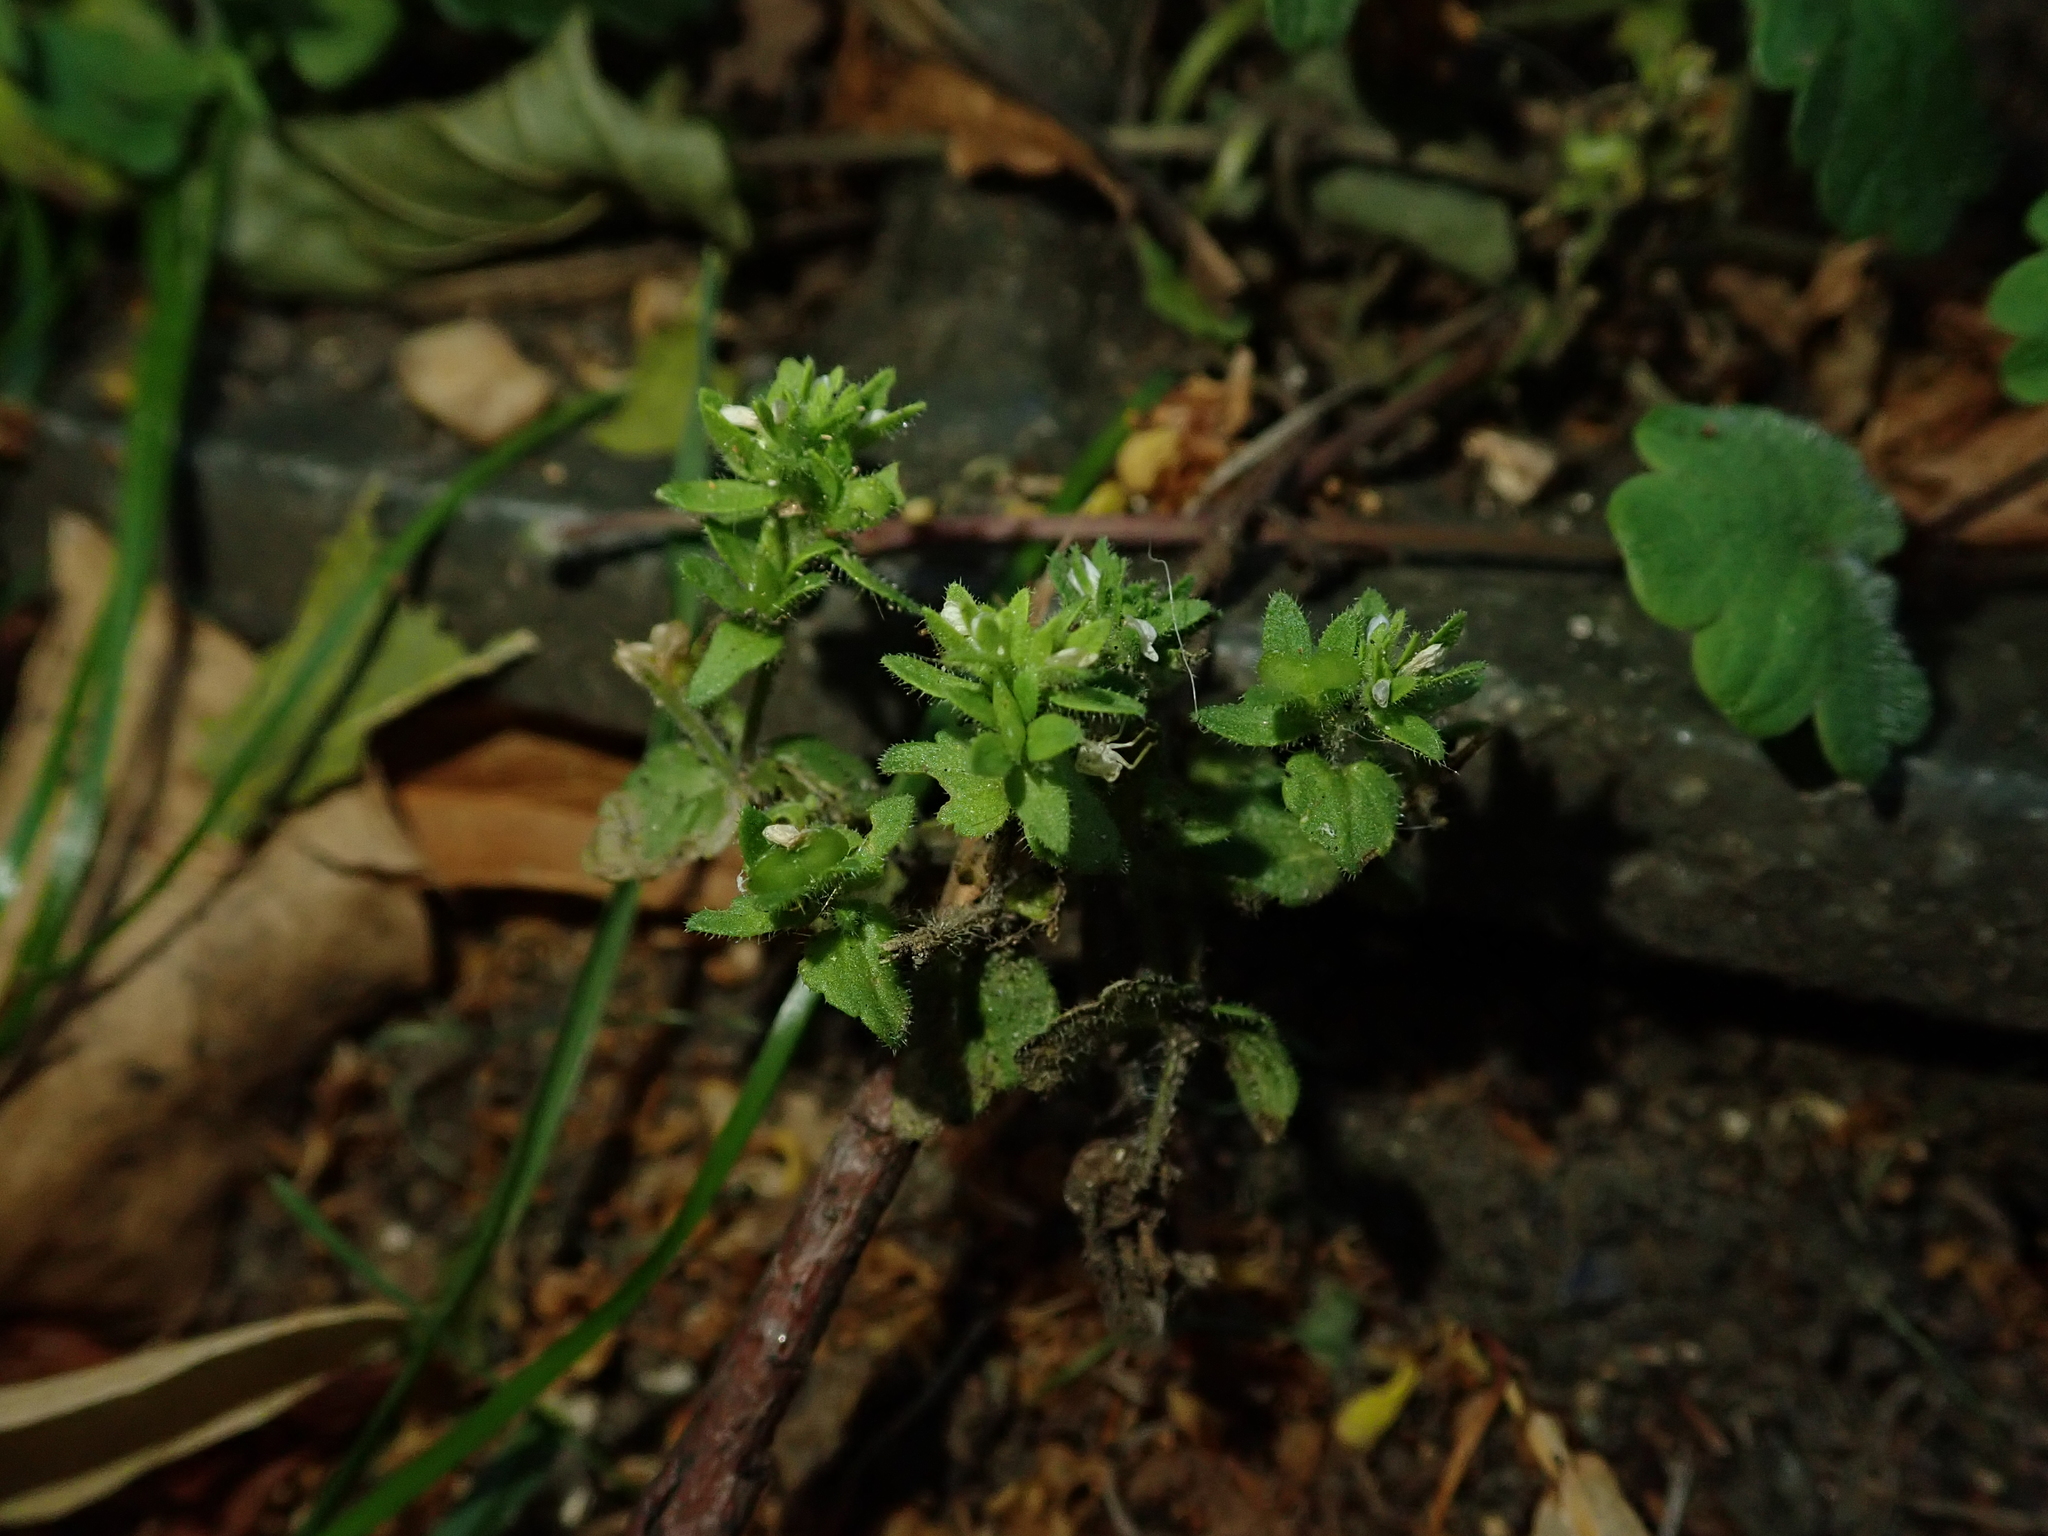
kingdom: Plantae
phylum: Tracheophyta
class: Magnoliopsida
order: Lamiales
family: Plantaginaceae
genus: Veronica
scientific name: Veronica arvensis
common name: Corn speedwell
